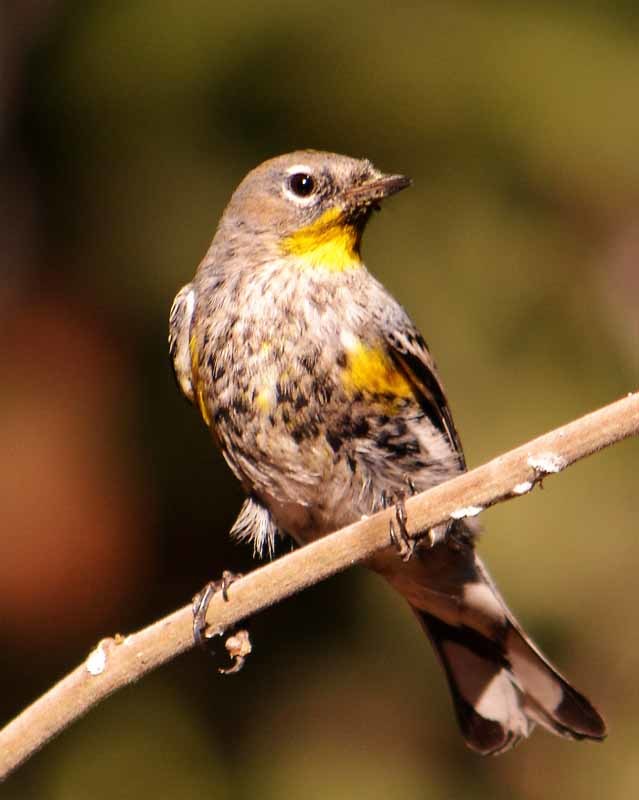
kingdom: Animalia
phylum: Chordata
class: Aves
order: Passeriformes
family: Parulidae
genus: Setophaga
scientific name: Setophaga auduboni
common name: Audubon's warbler
